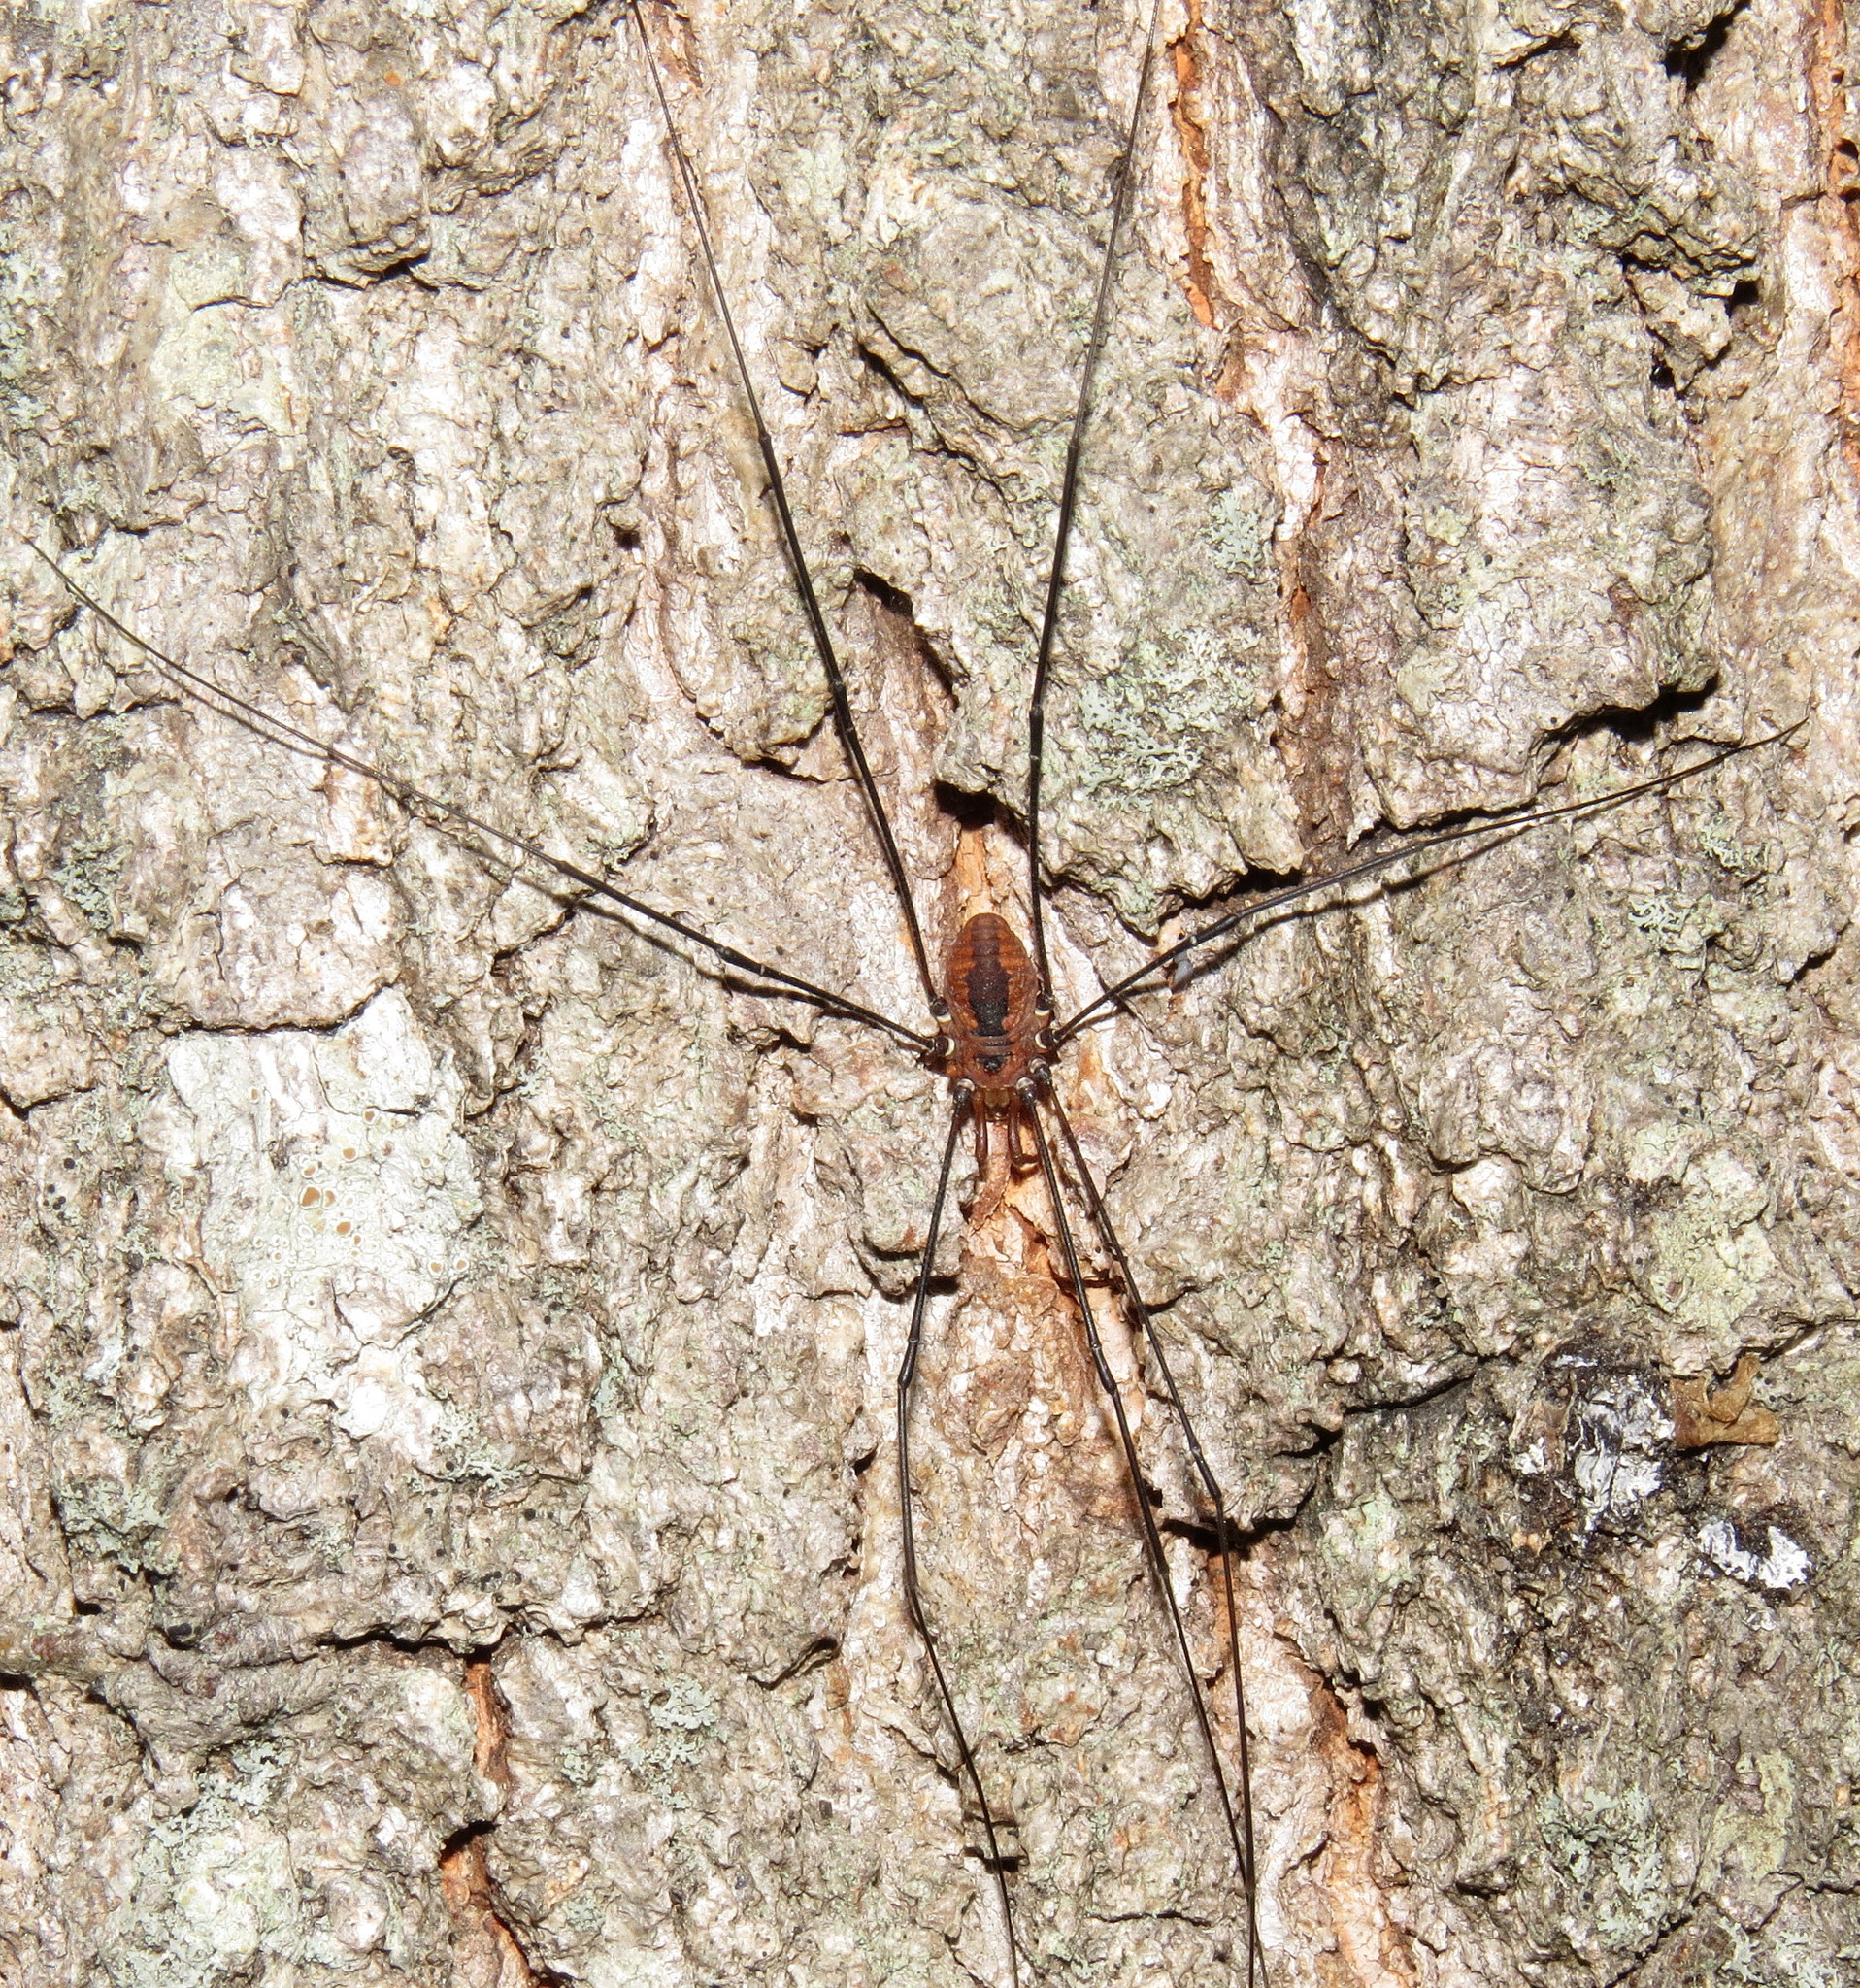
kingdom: Animalia
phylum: Arthropoda
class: Arachnida
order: Opiliones
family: Sclerosomatidae
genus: Leiobunum
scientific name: Leiobunum vittatum
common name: Eastern harvestman
